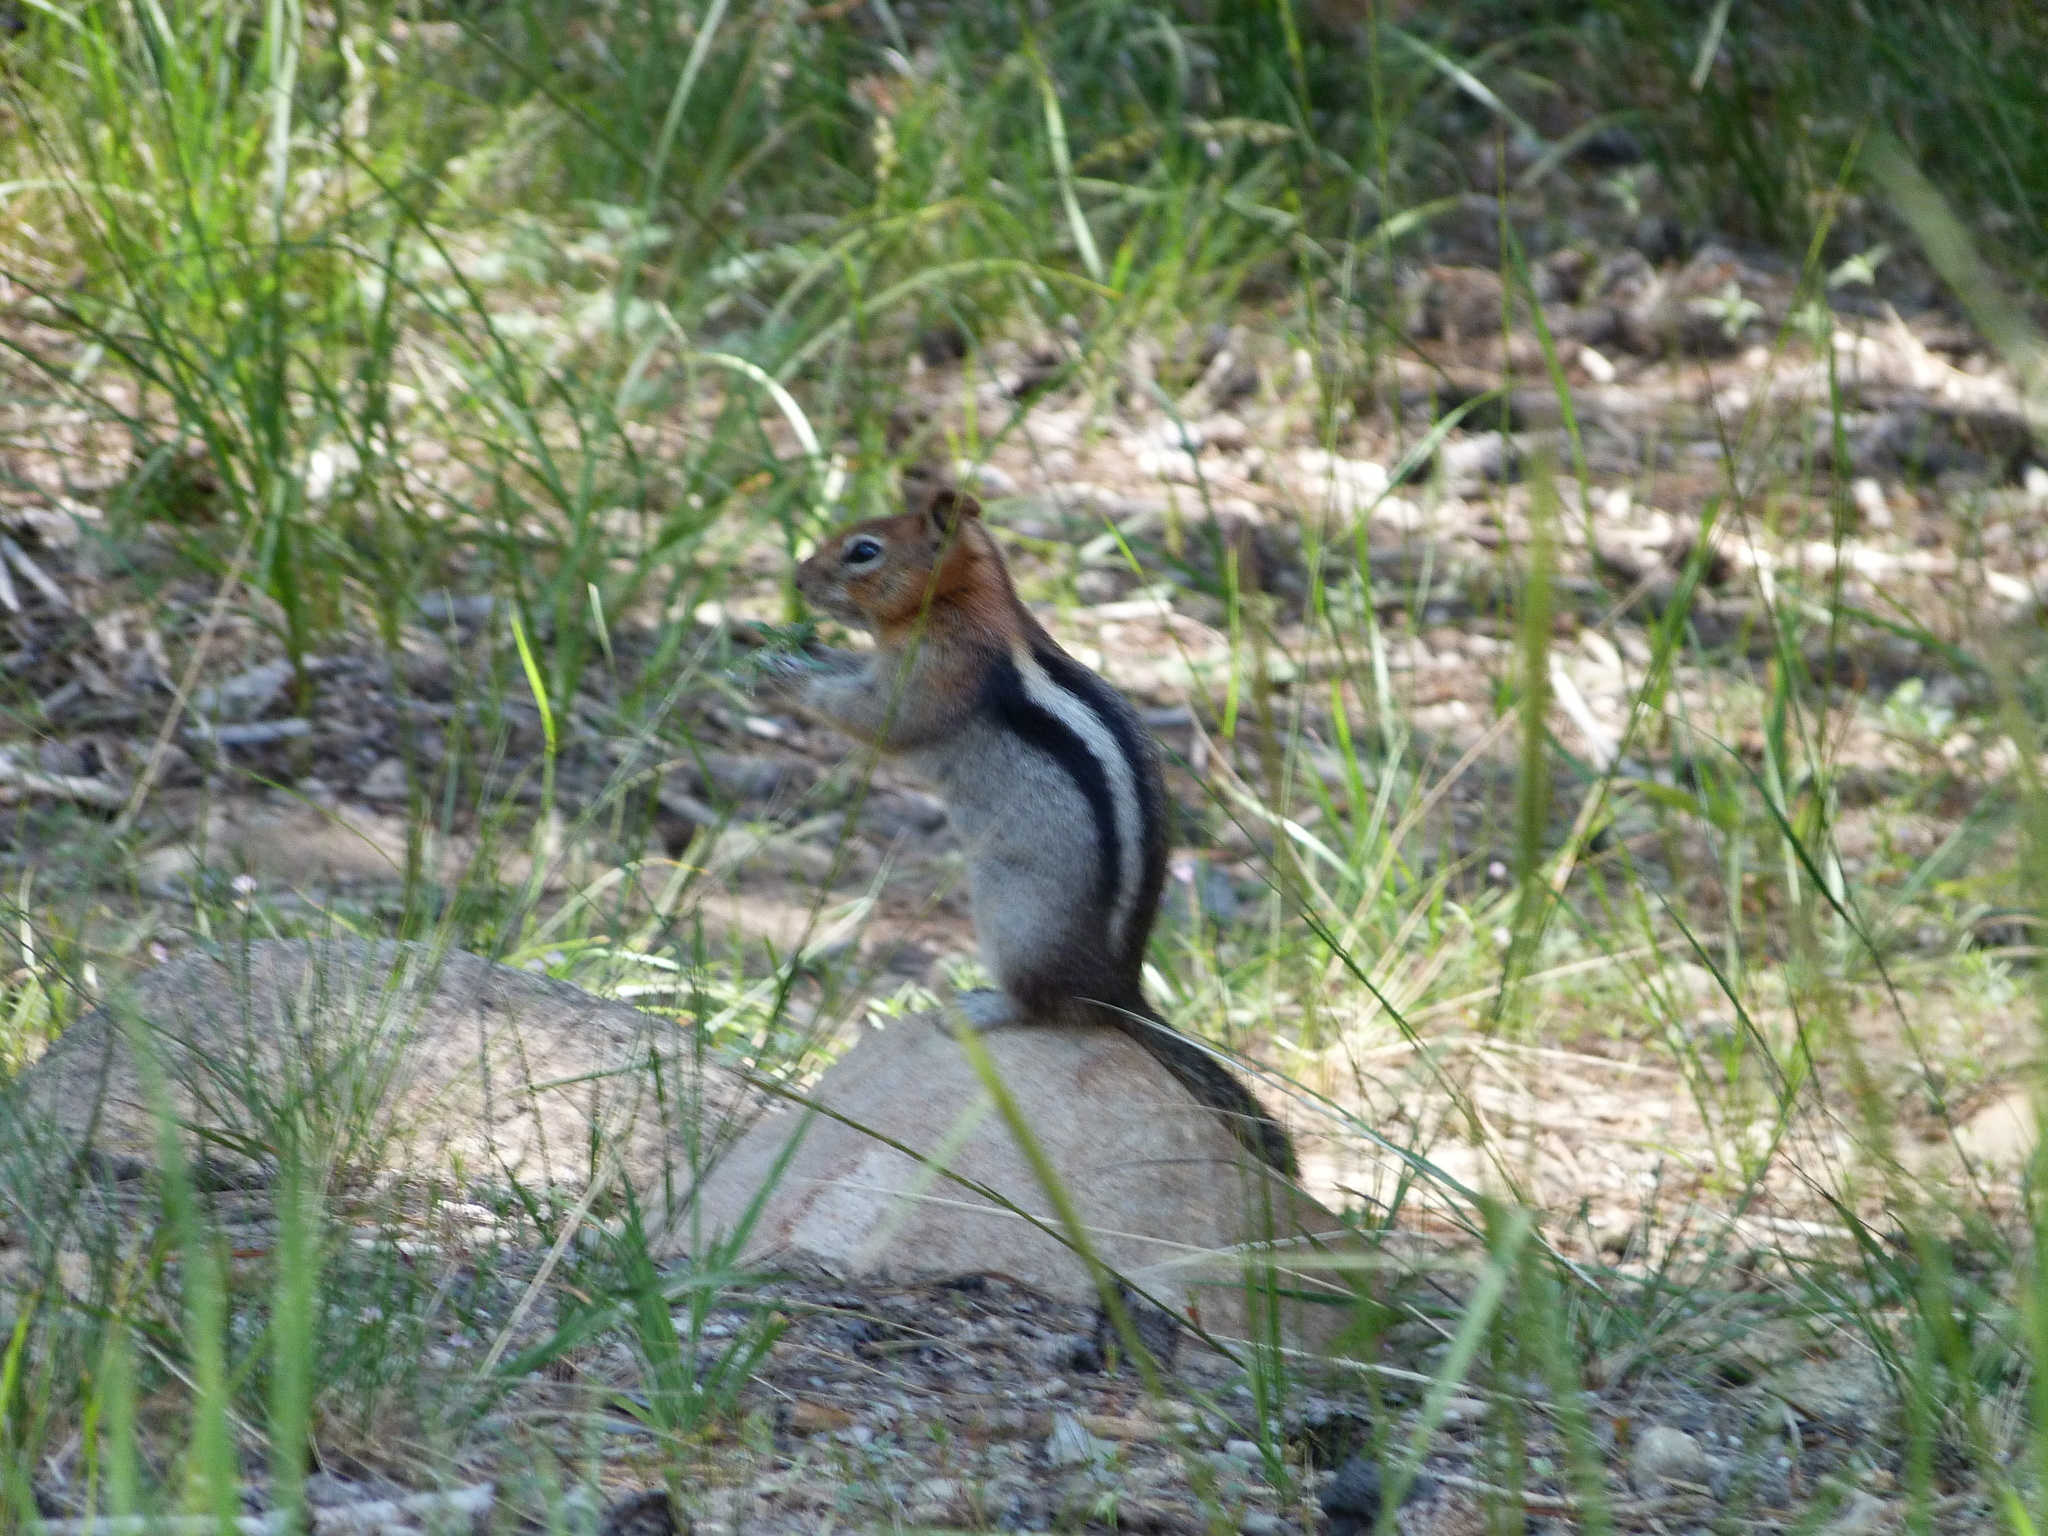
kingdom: Animalia
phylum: Chordata
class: Mammalia
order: Rodentia
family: Sciuridae
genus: Callospermophilus
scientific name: Callospermophilus lateralis
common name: Golden-mantled ground squirrel
